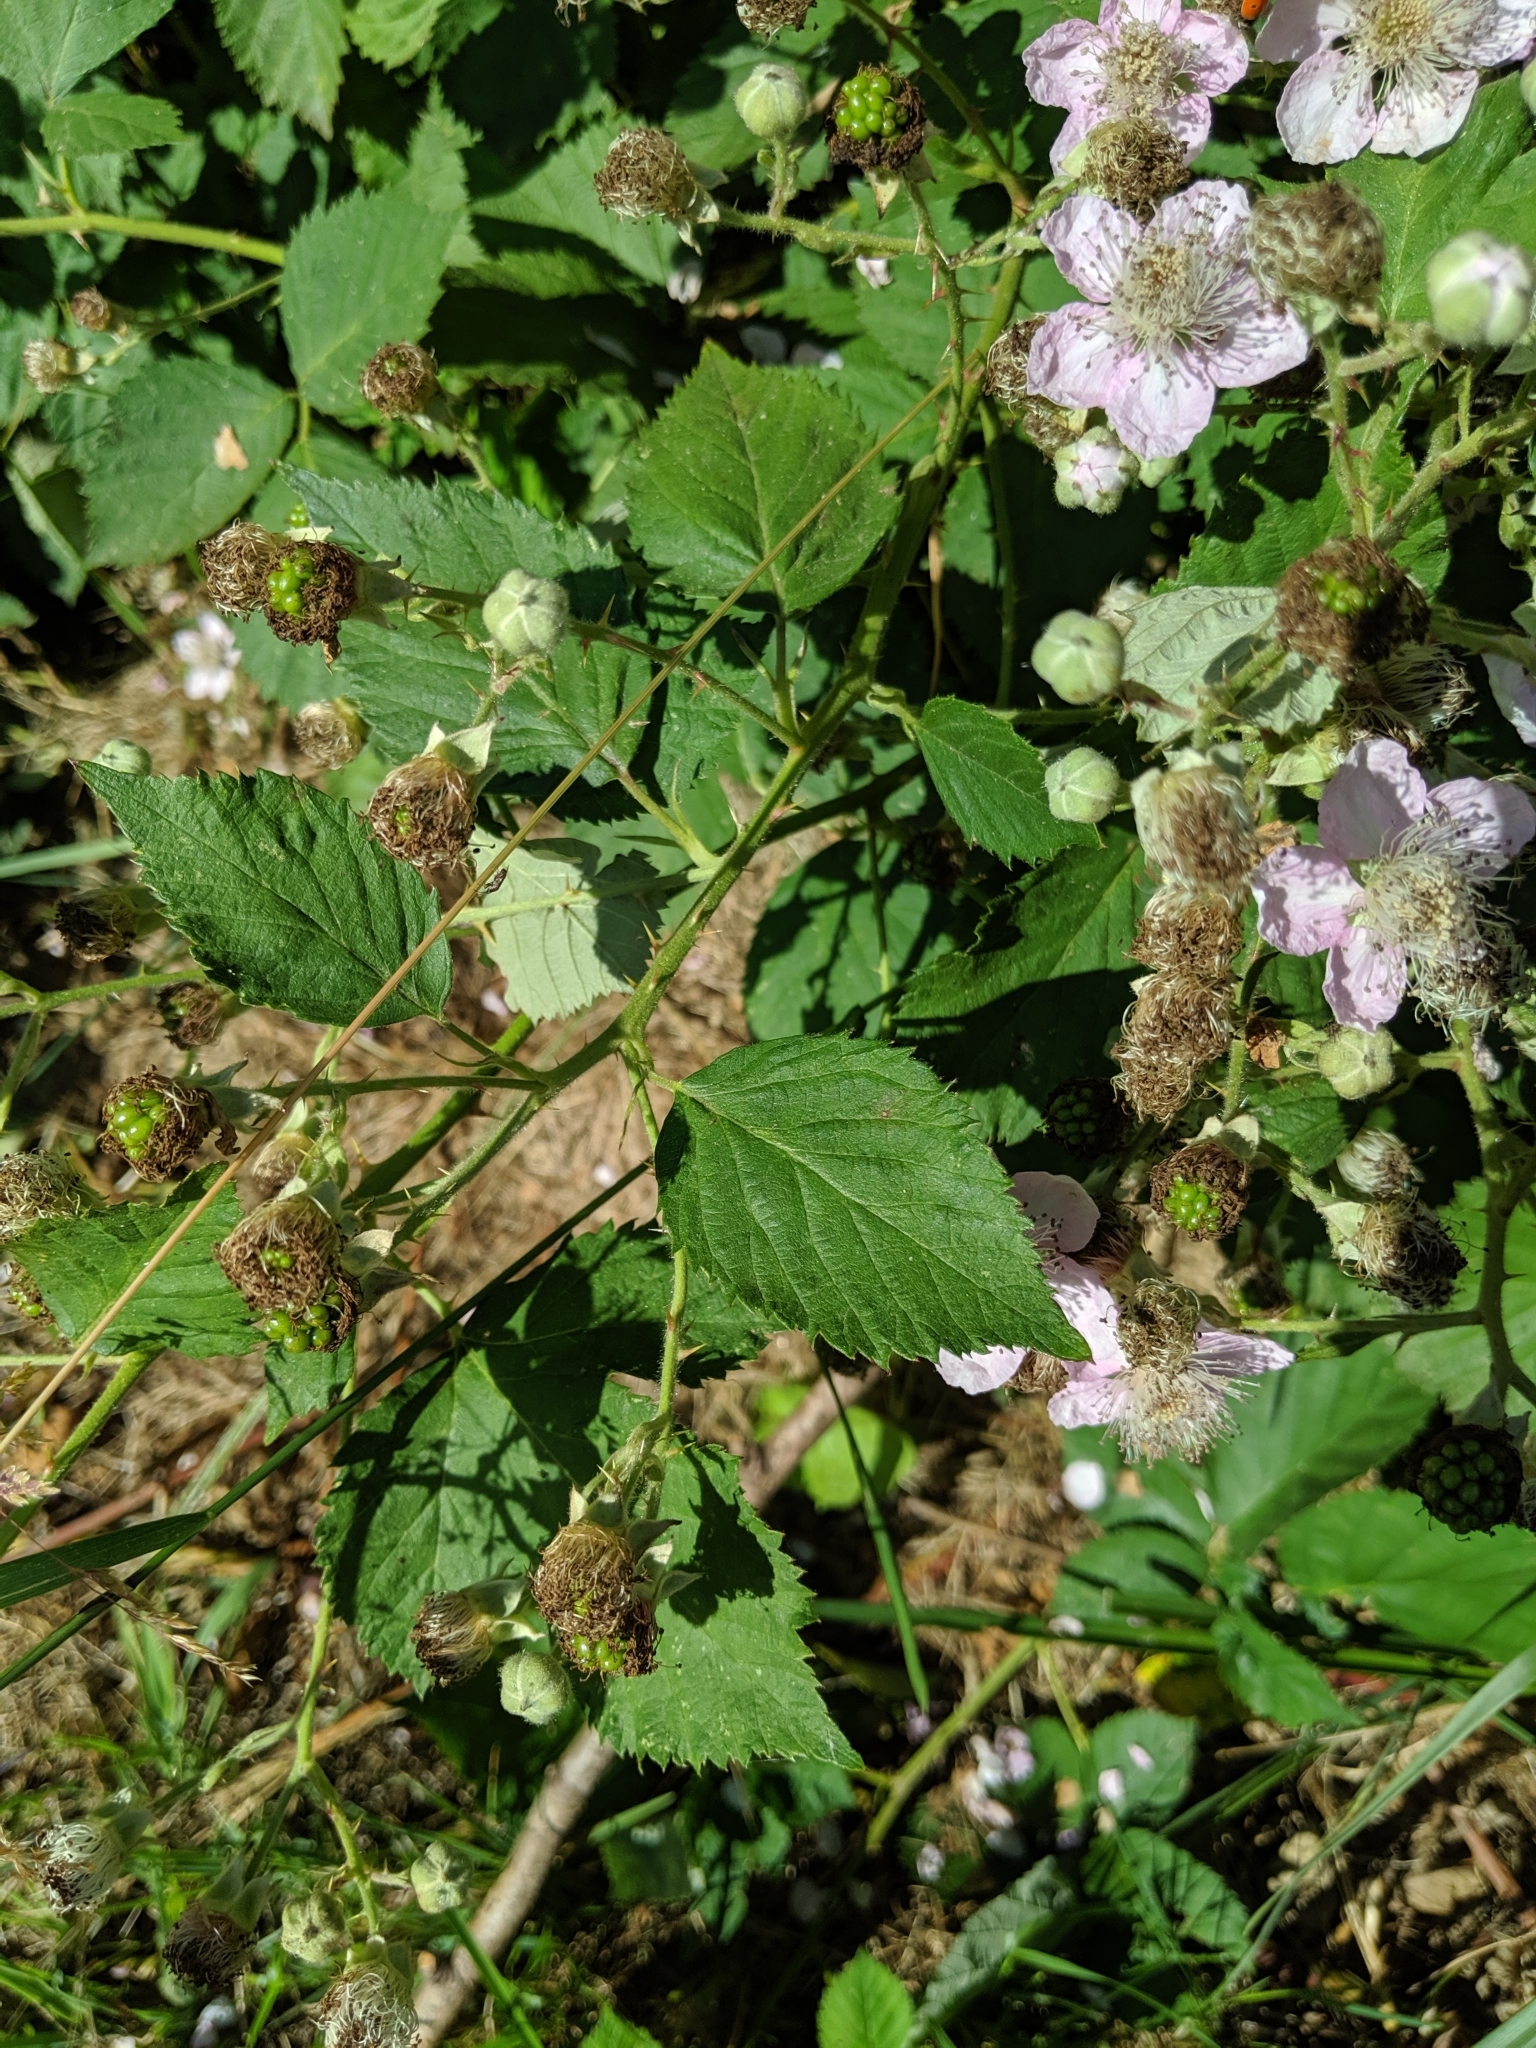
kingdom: Plantae
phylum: Tracheophyta
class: Magnoliopsida
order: Rosales
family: Rosaceae
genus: Rubus
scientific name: Rubus armeniacus
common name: Himalayan blackberry
